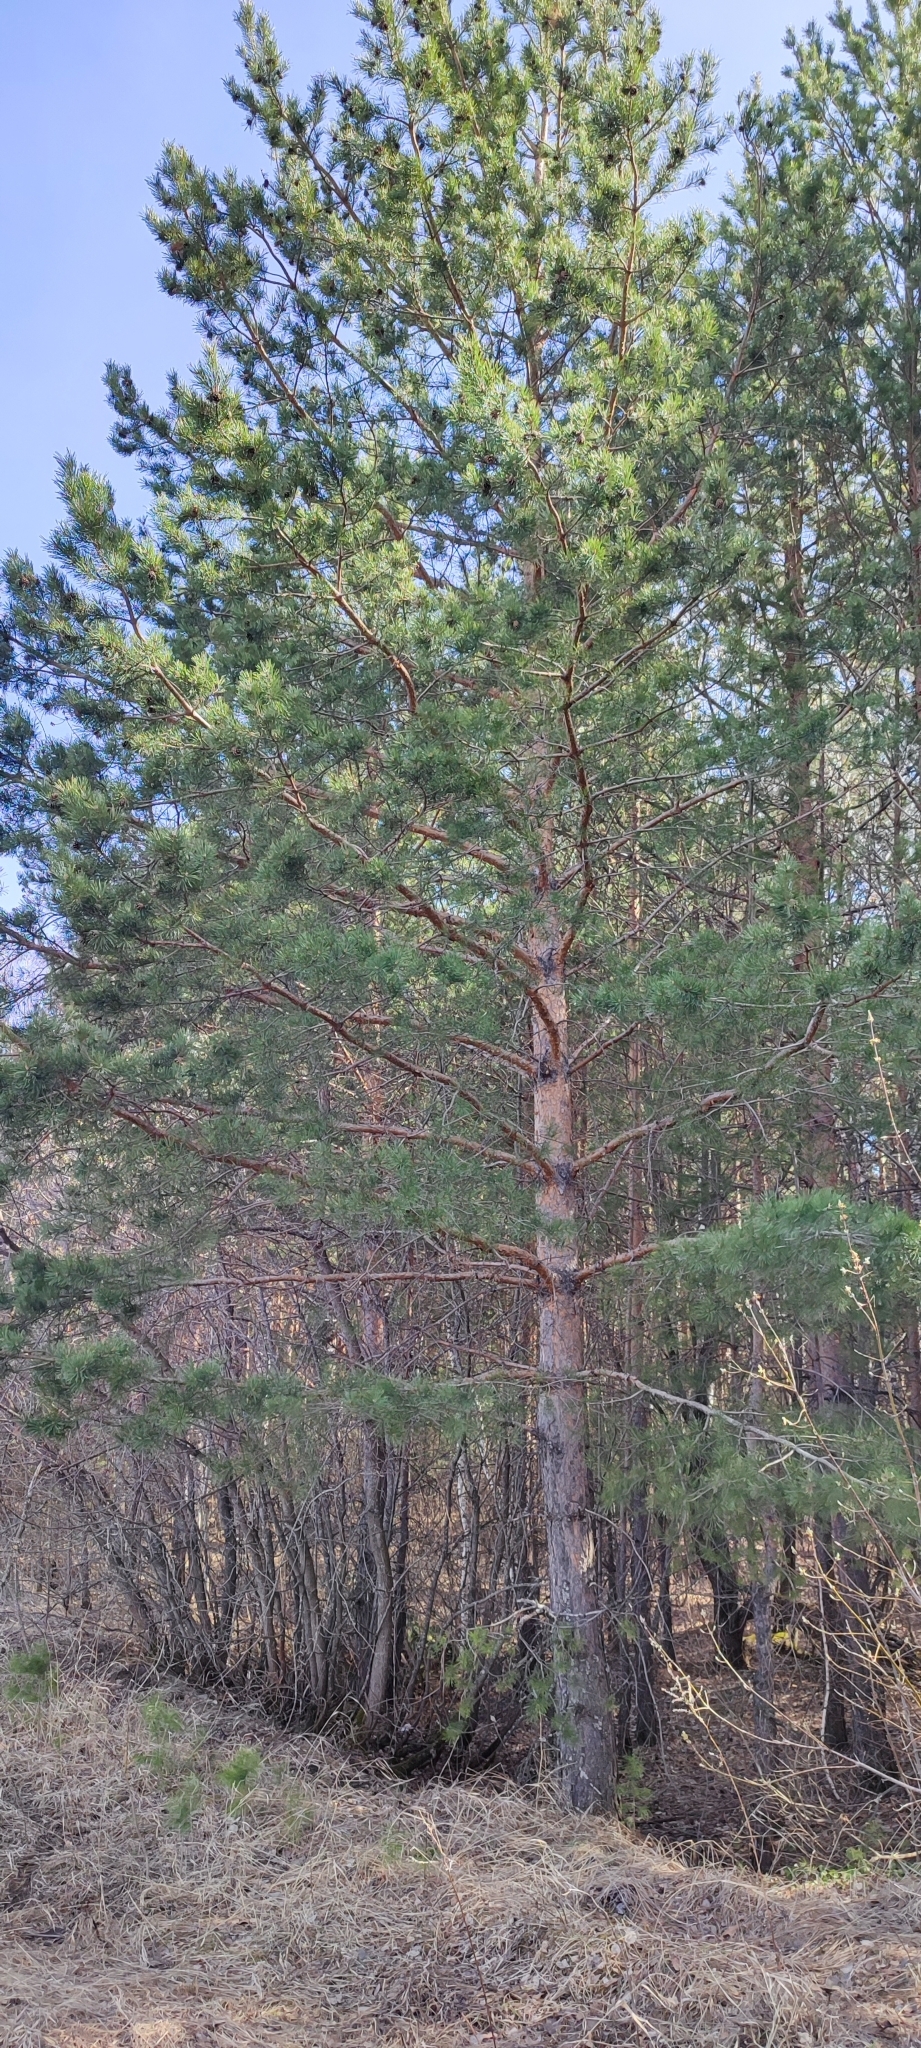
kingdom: Plantae
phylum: Tracheophyta
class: Pinopsida
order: Pinales
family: Pinaceae
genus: Pinus
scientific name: Pinus sylvestris
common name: Scots pine
